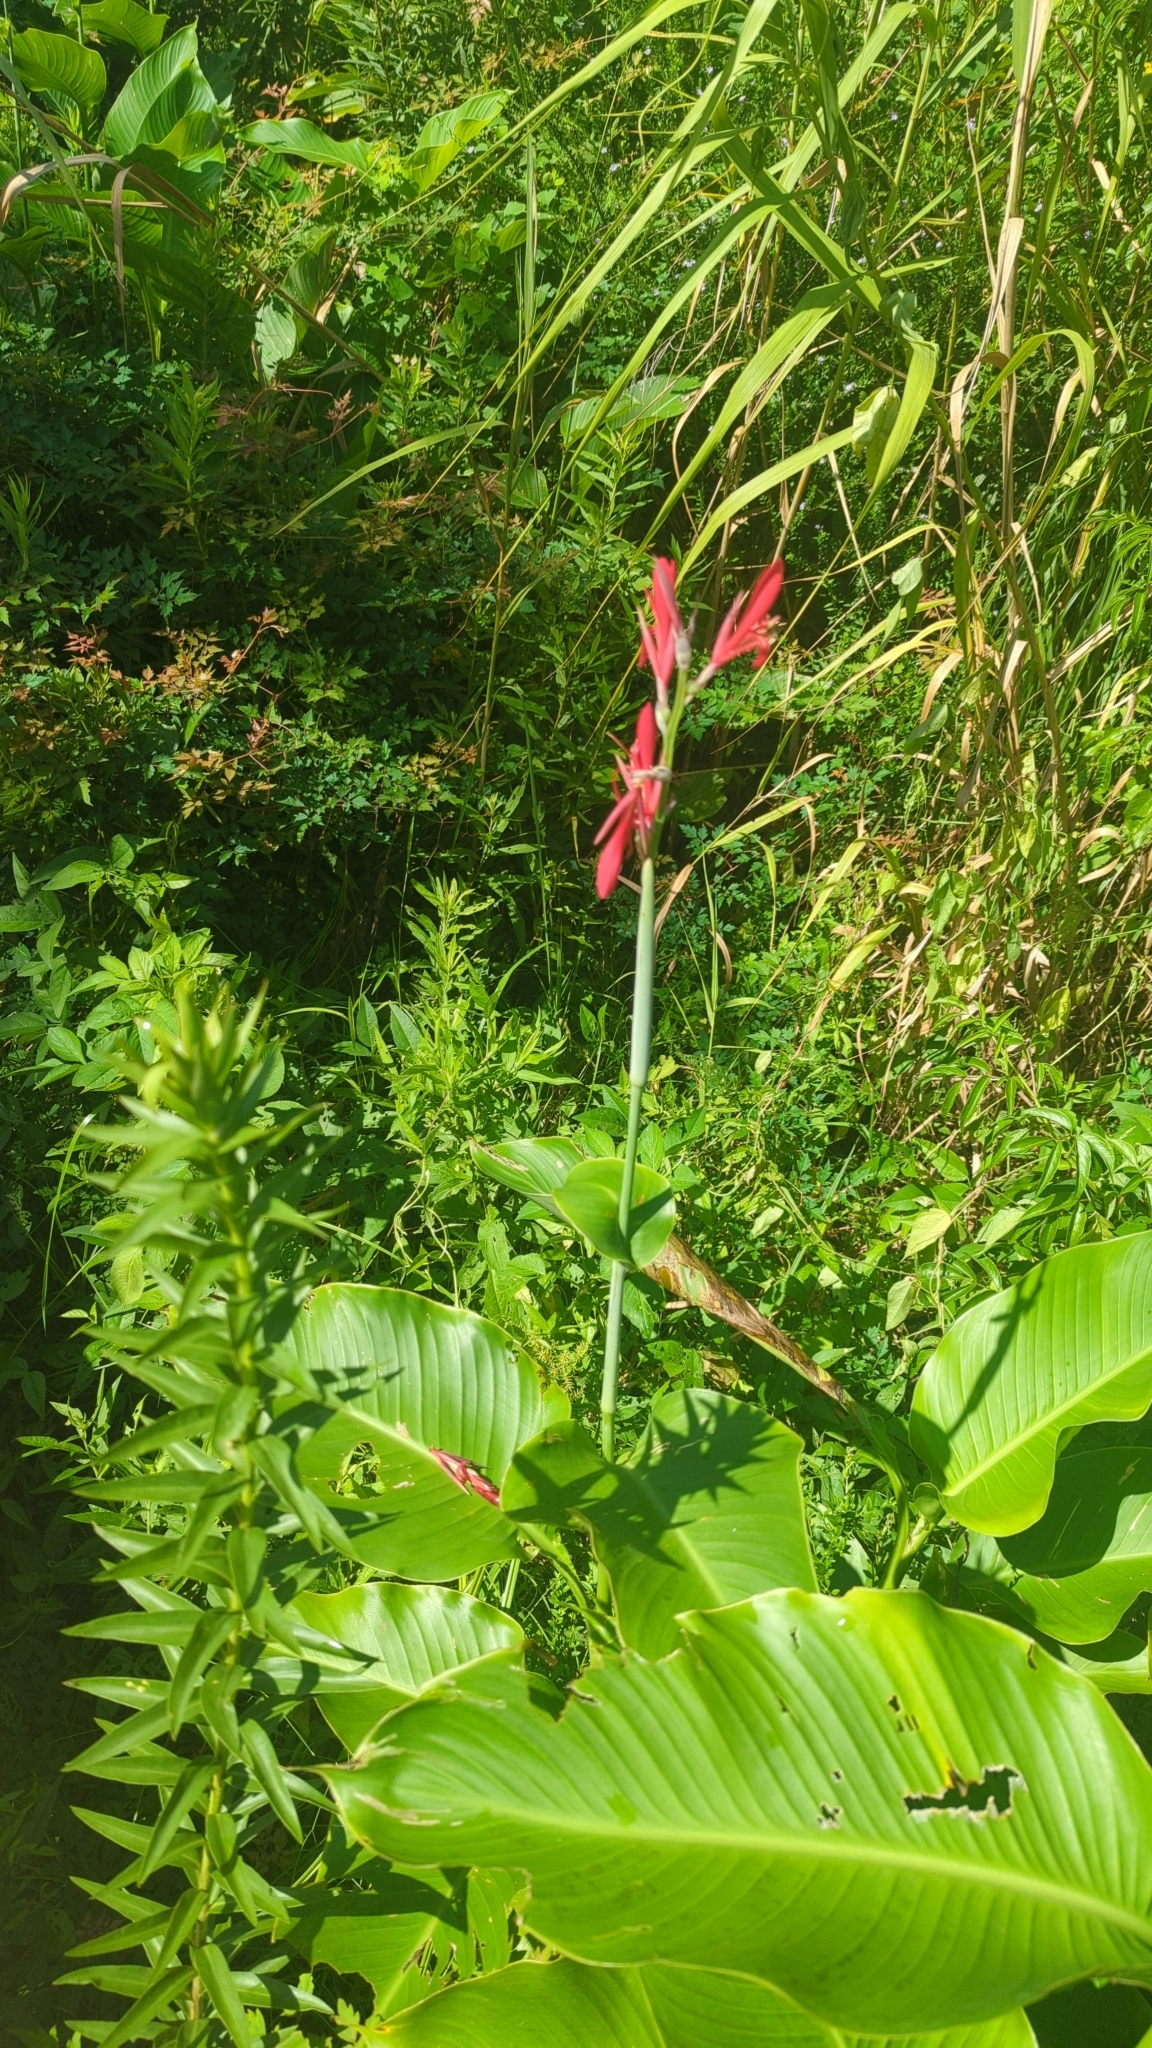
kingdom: Plantae
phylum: Tracheophyta
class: Liliopsida
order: Zingiberales
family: Cannaceae
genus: Canna
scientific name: Canna indica
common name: Indian shot
